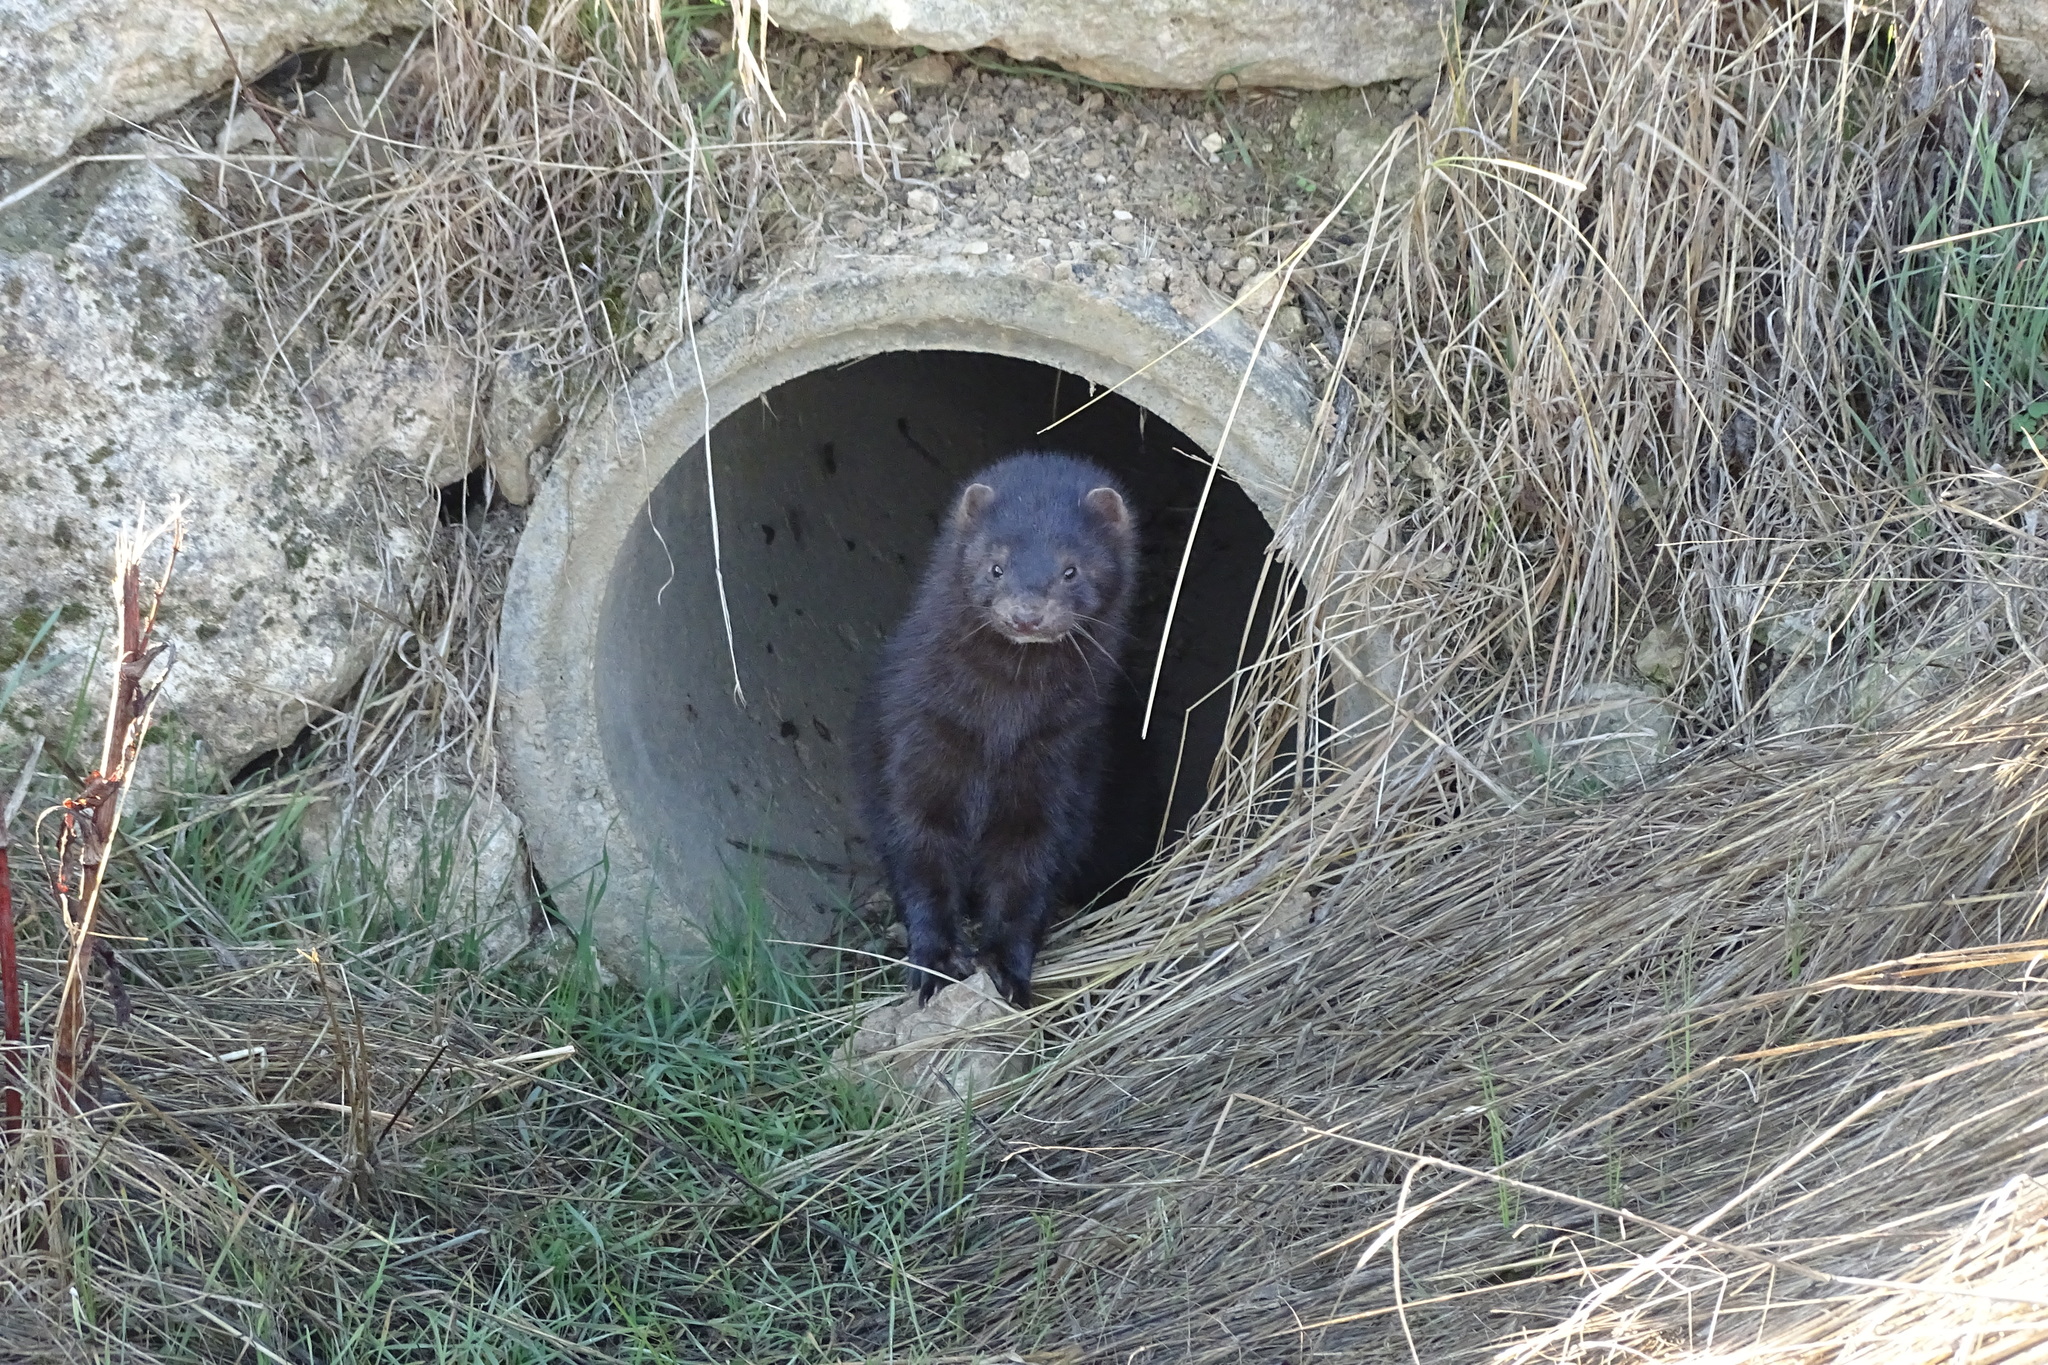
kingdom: Animalia
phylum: Chordata
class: Mammalia
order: Carnivora
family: Mustelidae
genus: Mustela
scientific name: Mustela
